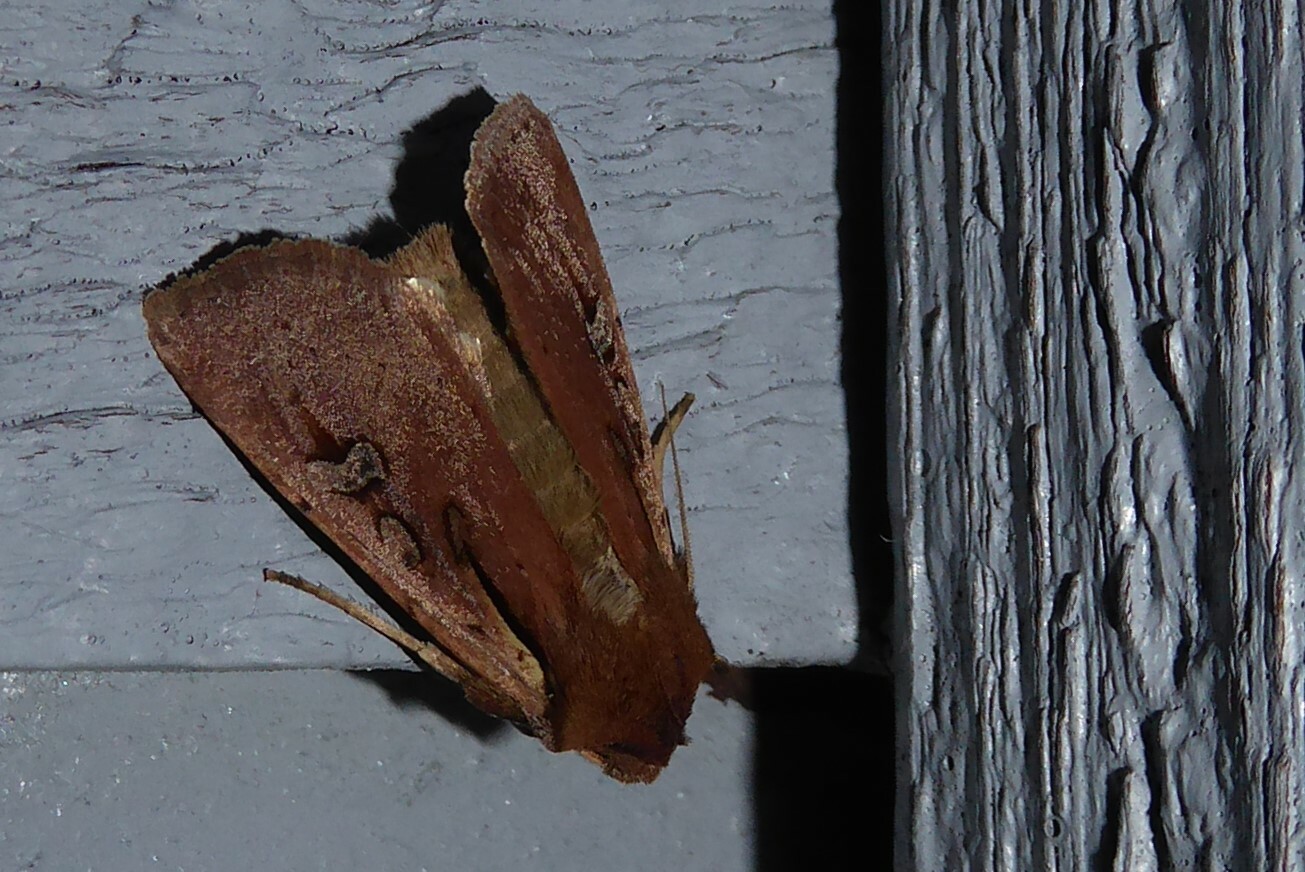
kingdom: Animalia
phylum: Arthropoda
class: Insecta
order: Lepidoptera
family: Noctuidae
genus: Ichneutica
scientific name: Ichneutica atristriga
